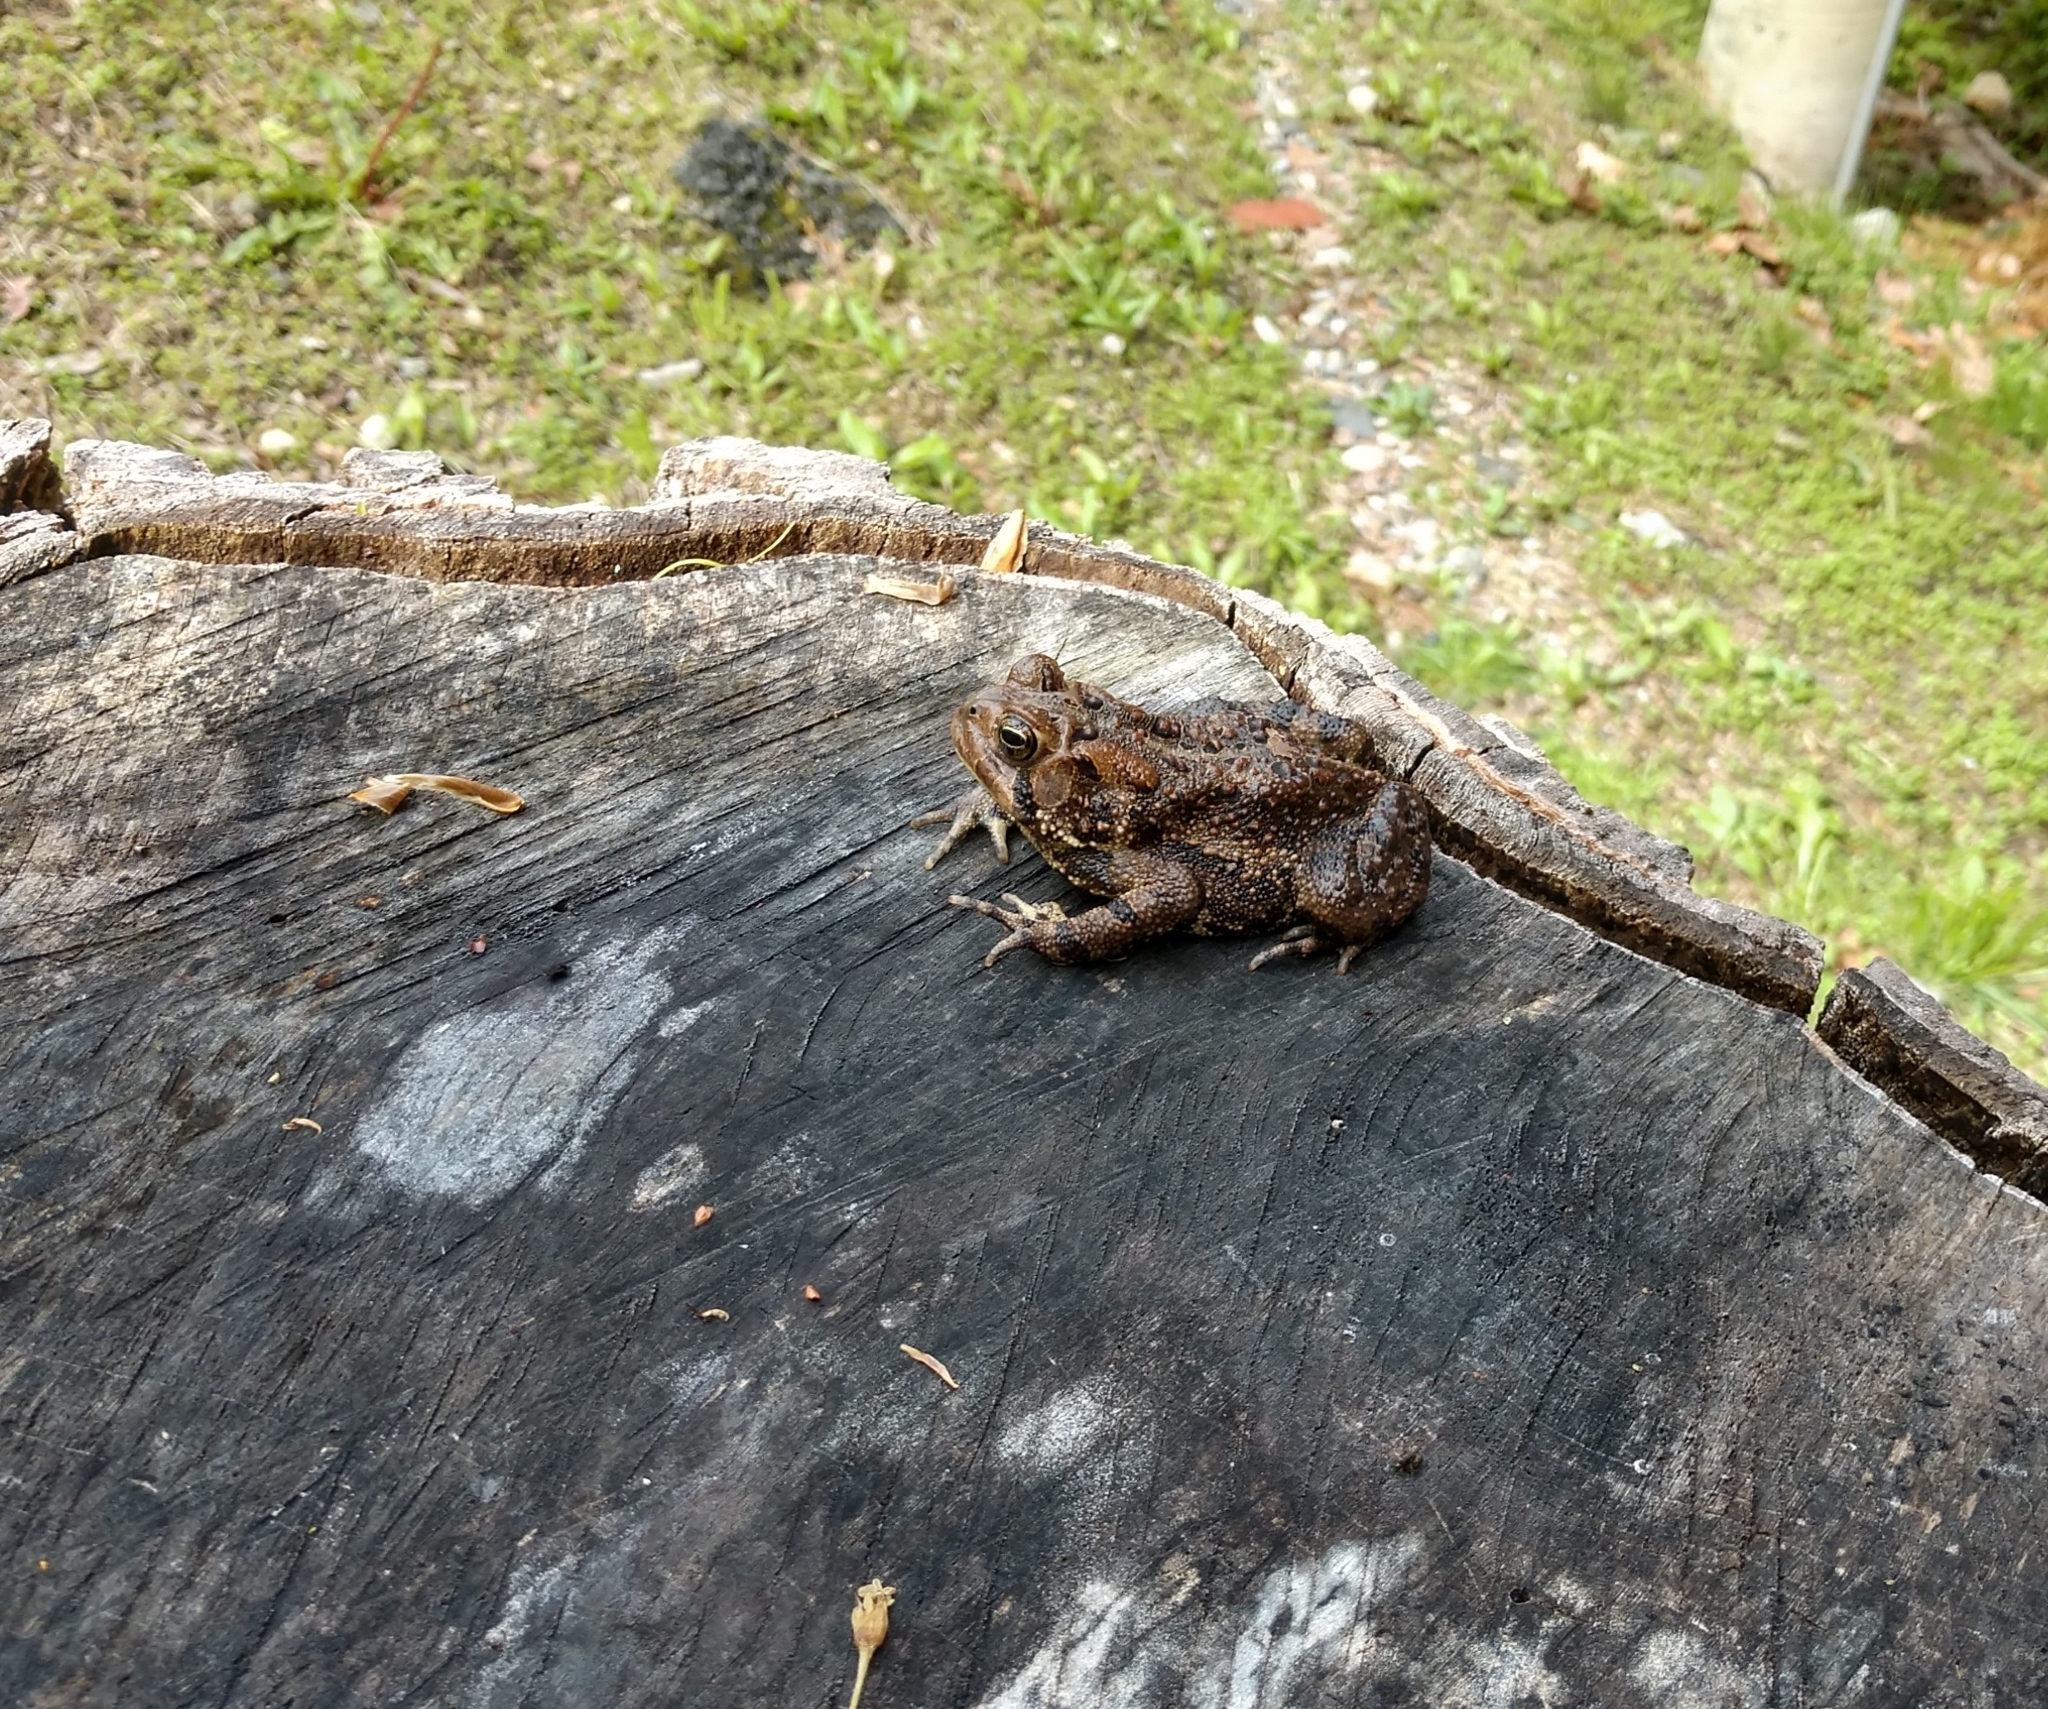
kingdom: Animalia
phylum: Chordata
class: Amphibia
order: Anura
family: Bufonidae
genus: Anaxyrus
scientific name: Anaxyrus americanus
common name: American toad
